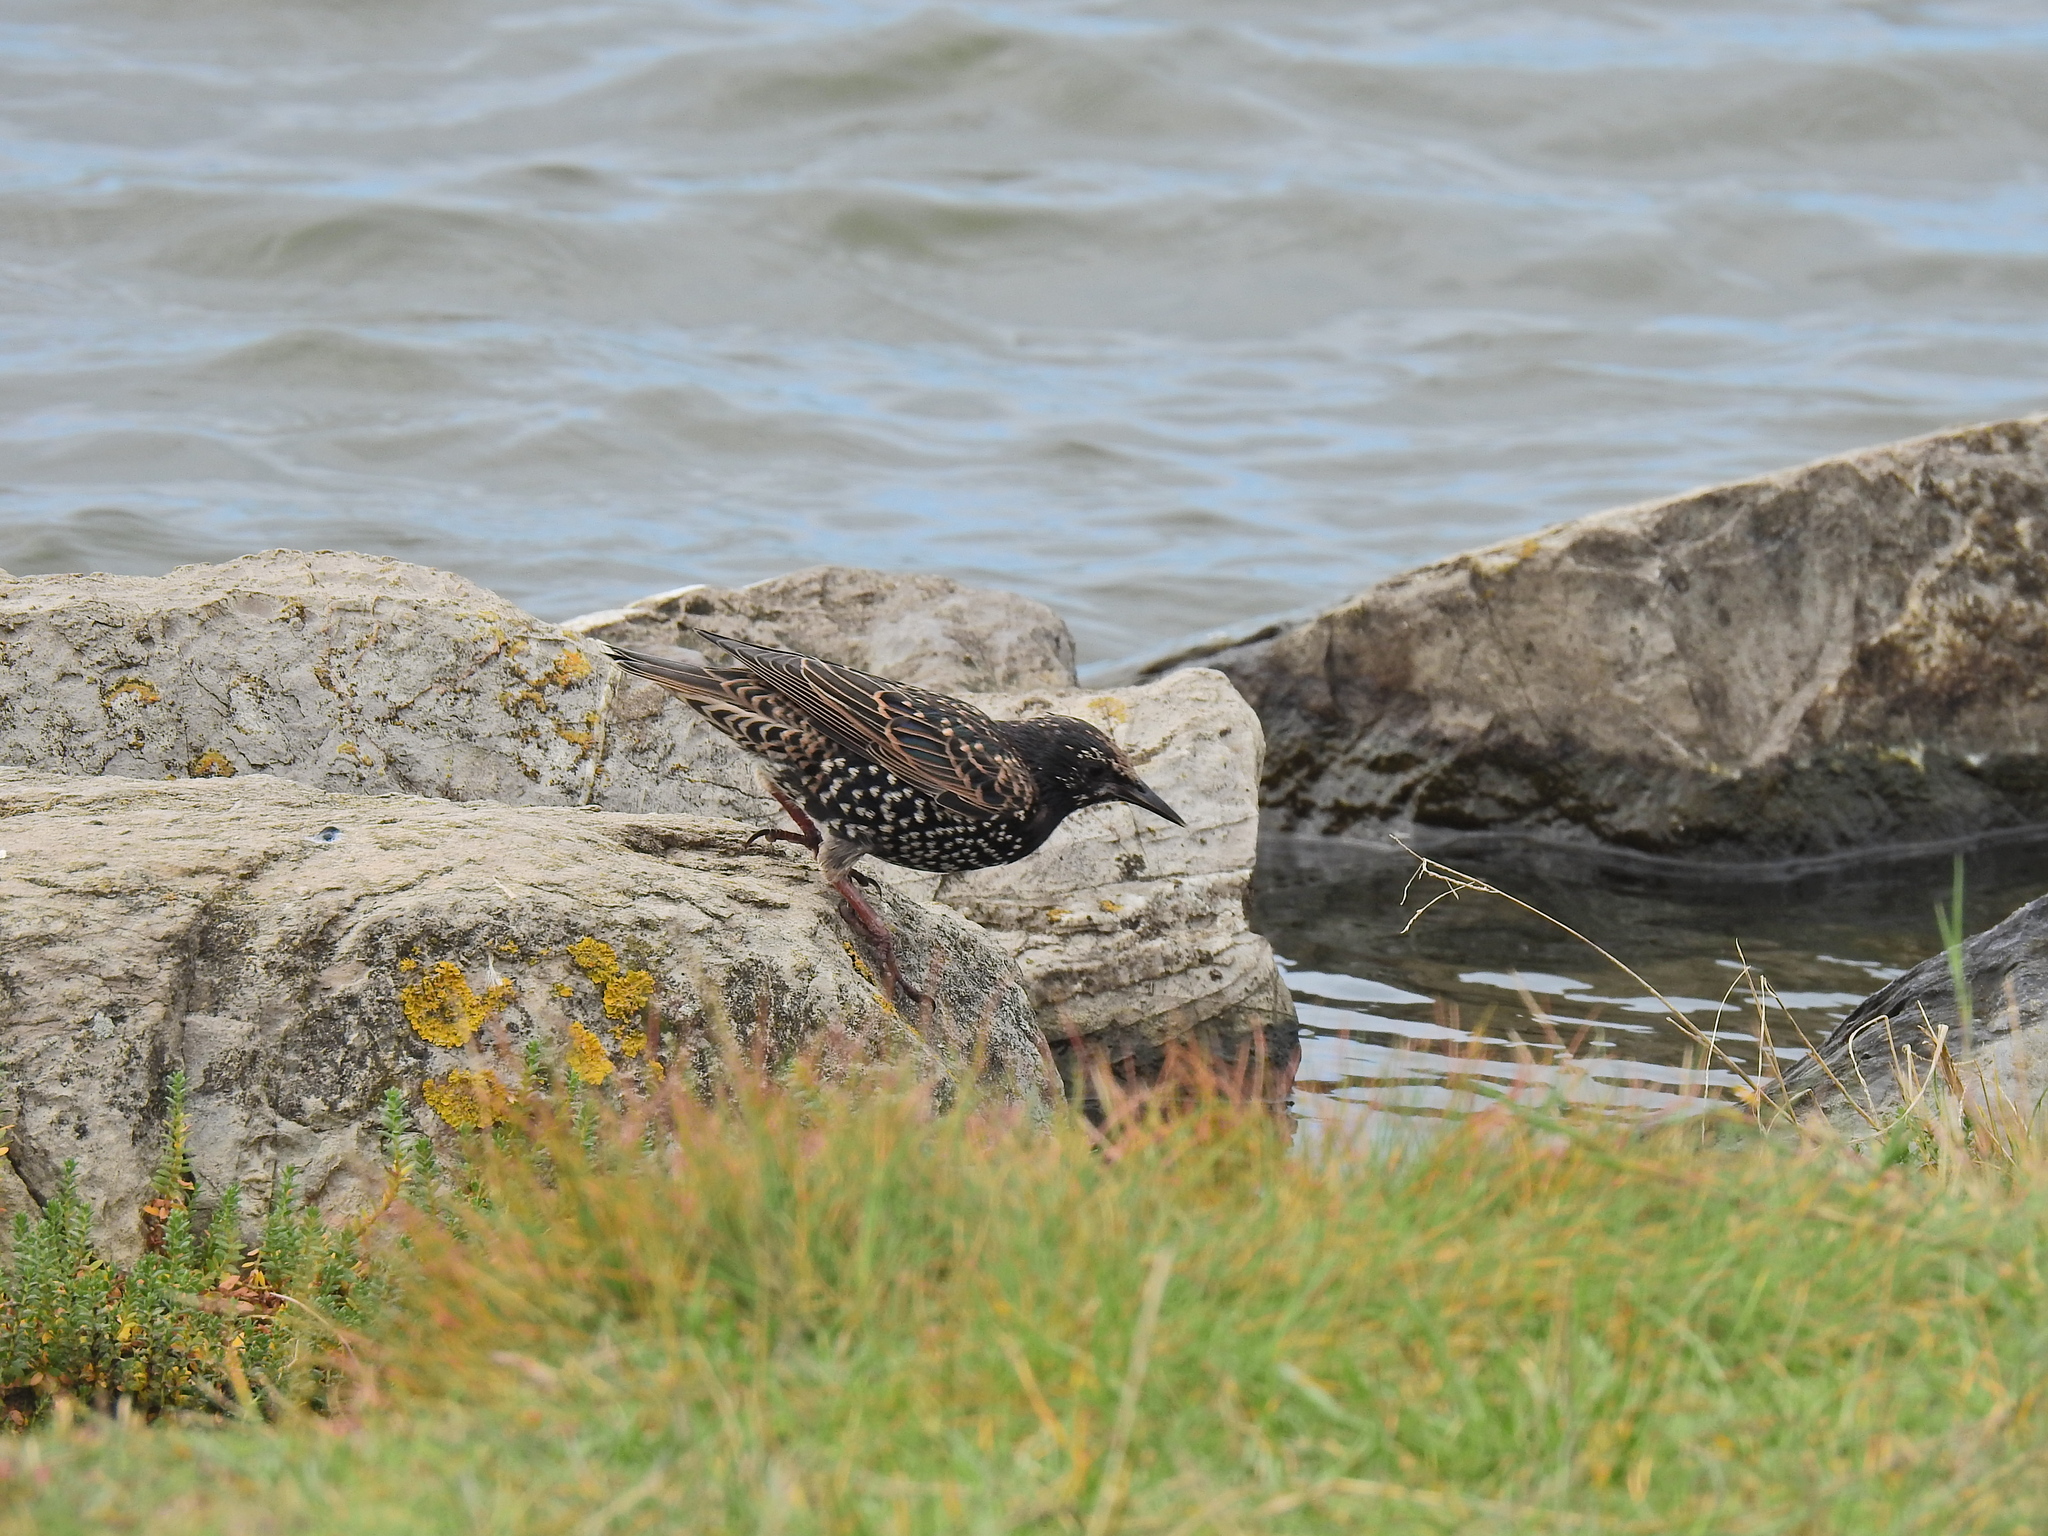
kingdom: Animalia
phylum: Chordata
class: Aves
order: Passeriformes
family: Sturnidae
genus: Sturnus
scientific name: Sturnus vulgaris
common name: Common starling
